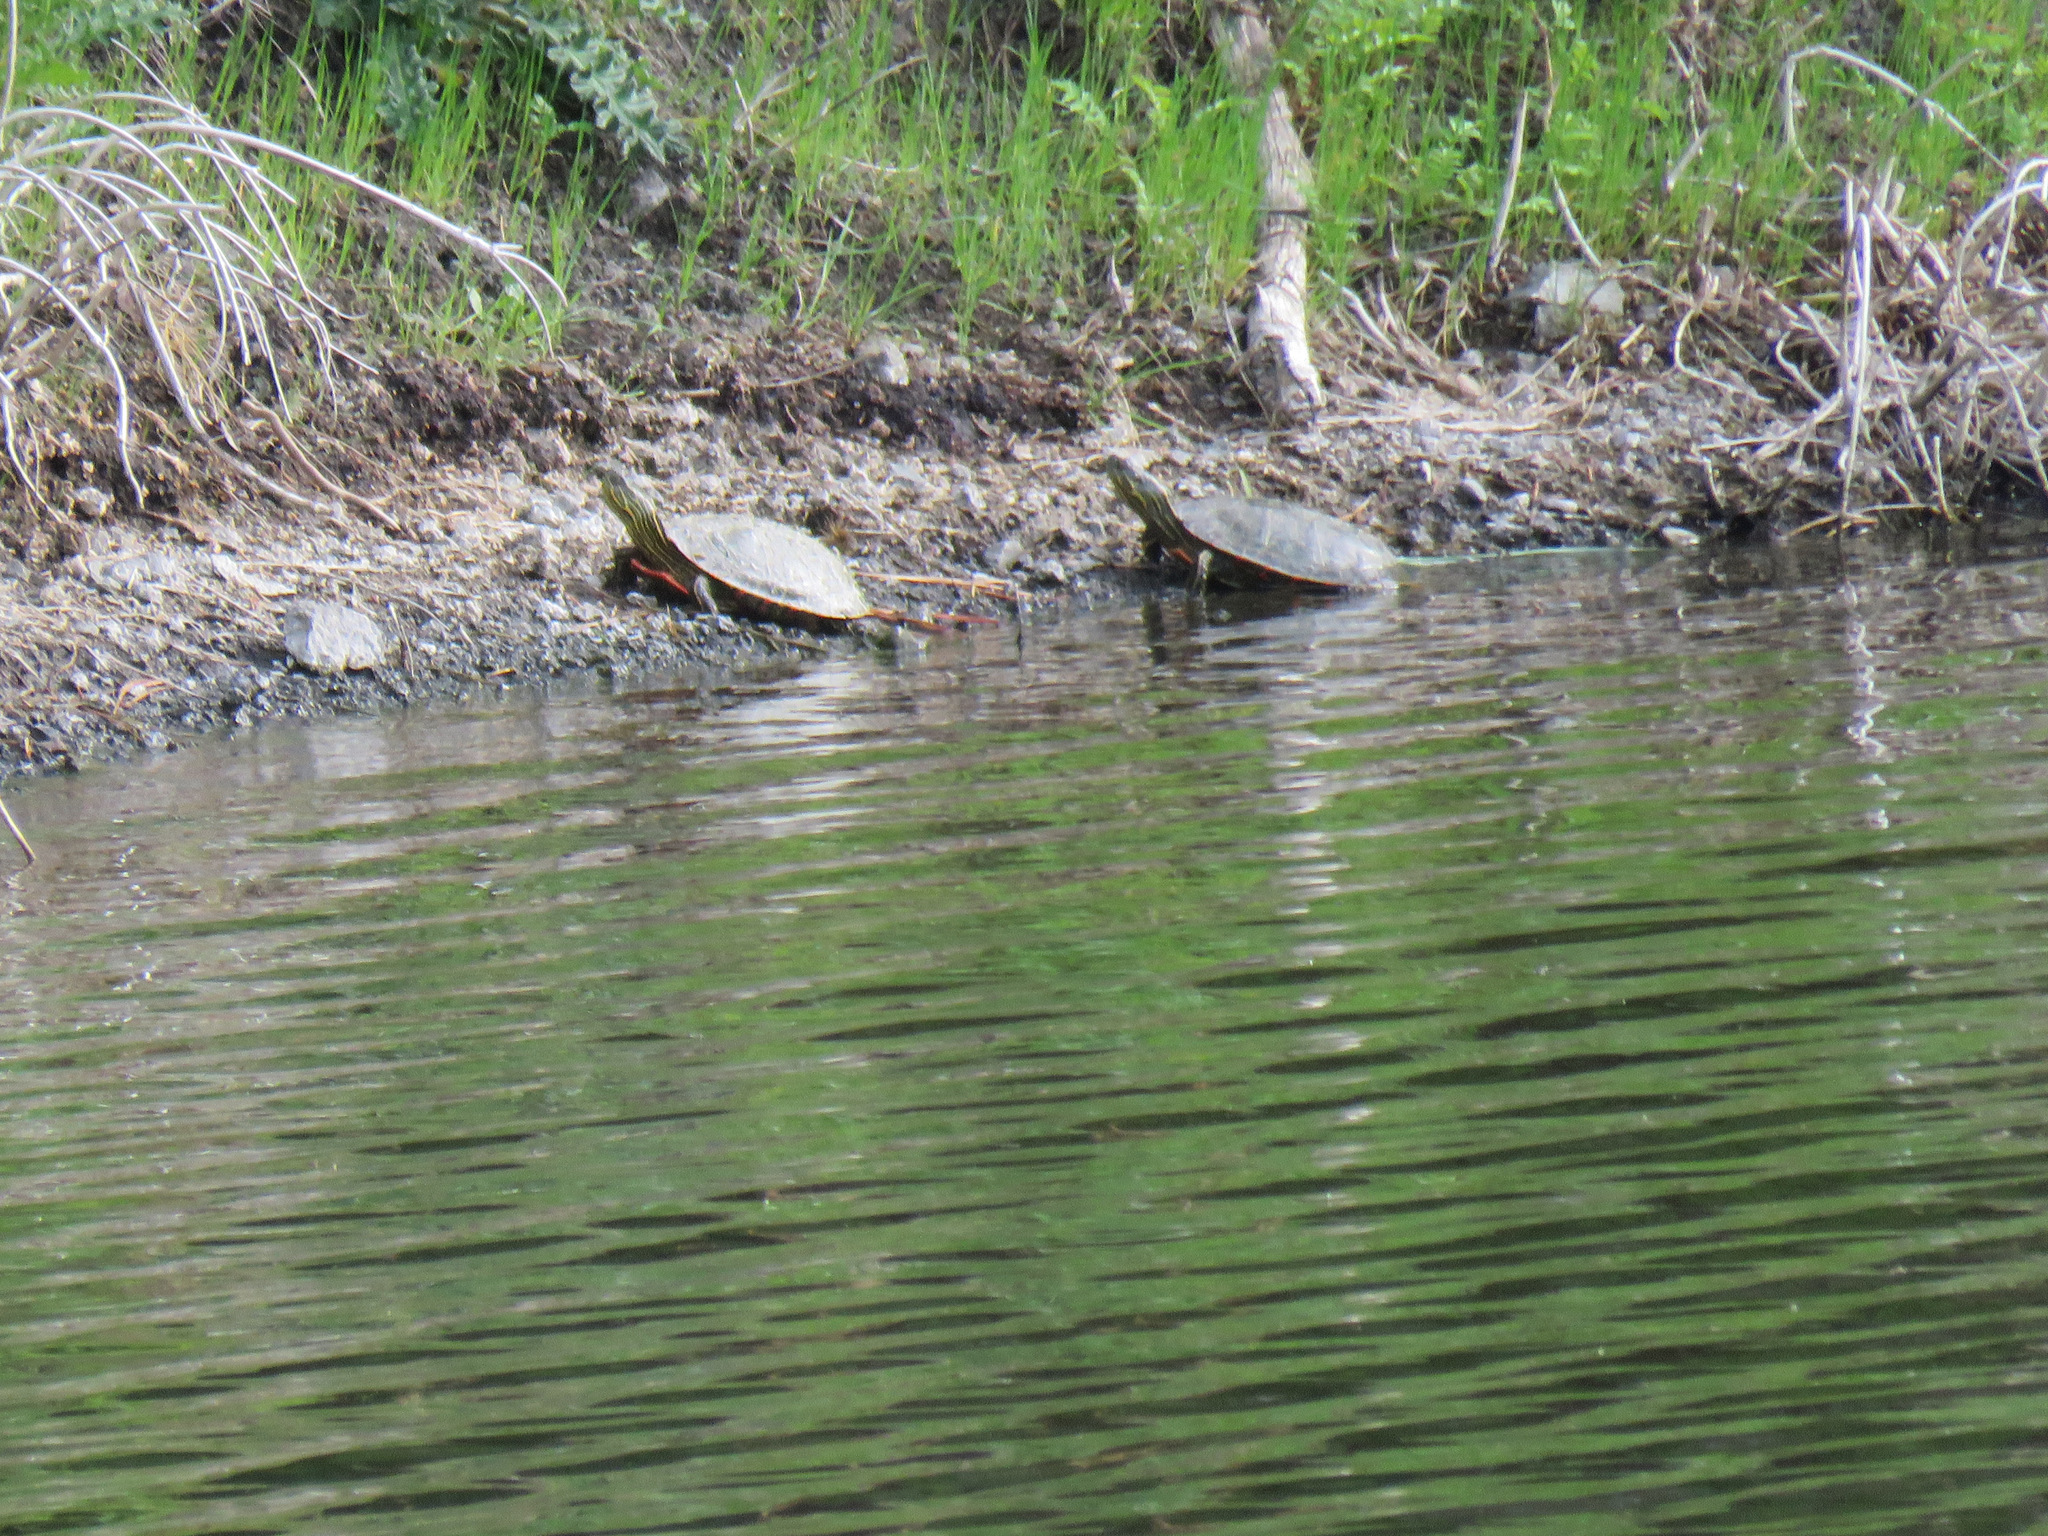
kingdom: Animalia
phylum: Chordata
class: Testudines
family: Emydidae
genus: Chrysemys
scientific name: Chrysemys picta
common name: Painted turtle
